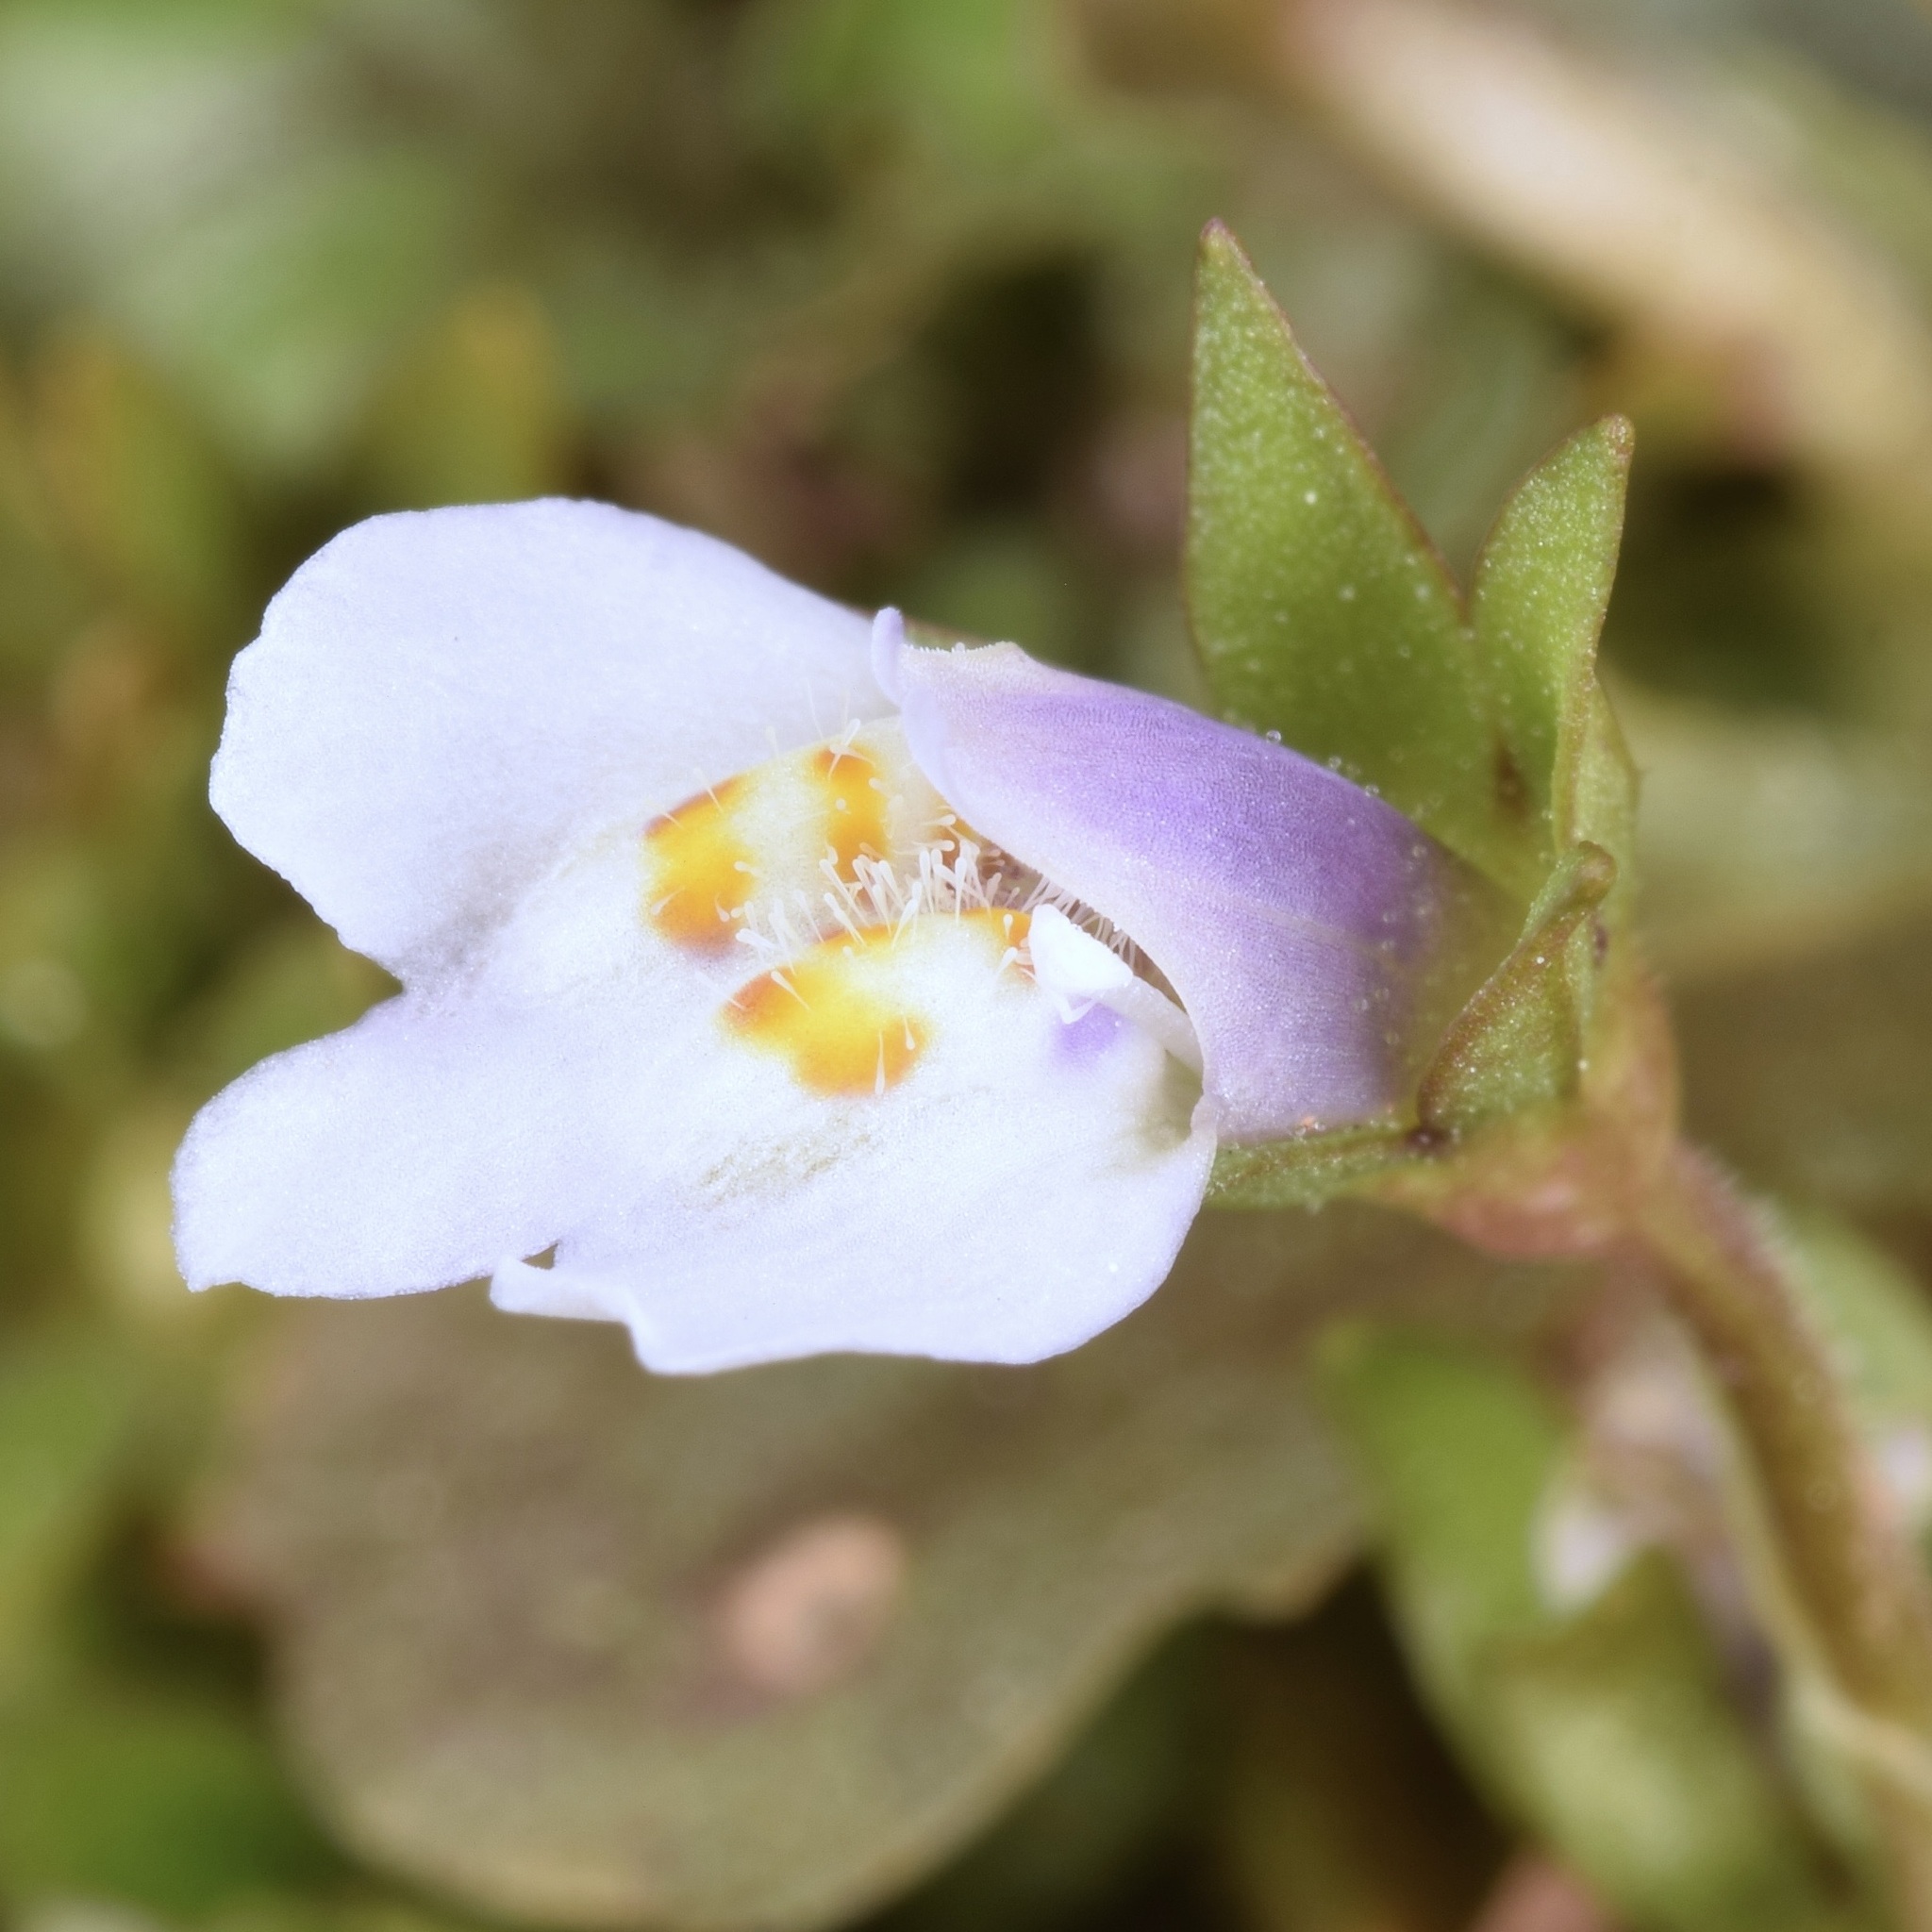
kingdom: Plantae
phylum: Tracheophyta
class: Magnoliopsida
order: Lamiales
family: Mazaceae
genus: Mazus
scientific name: Mazus pumilus
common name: Japanese mazus
